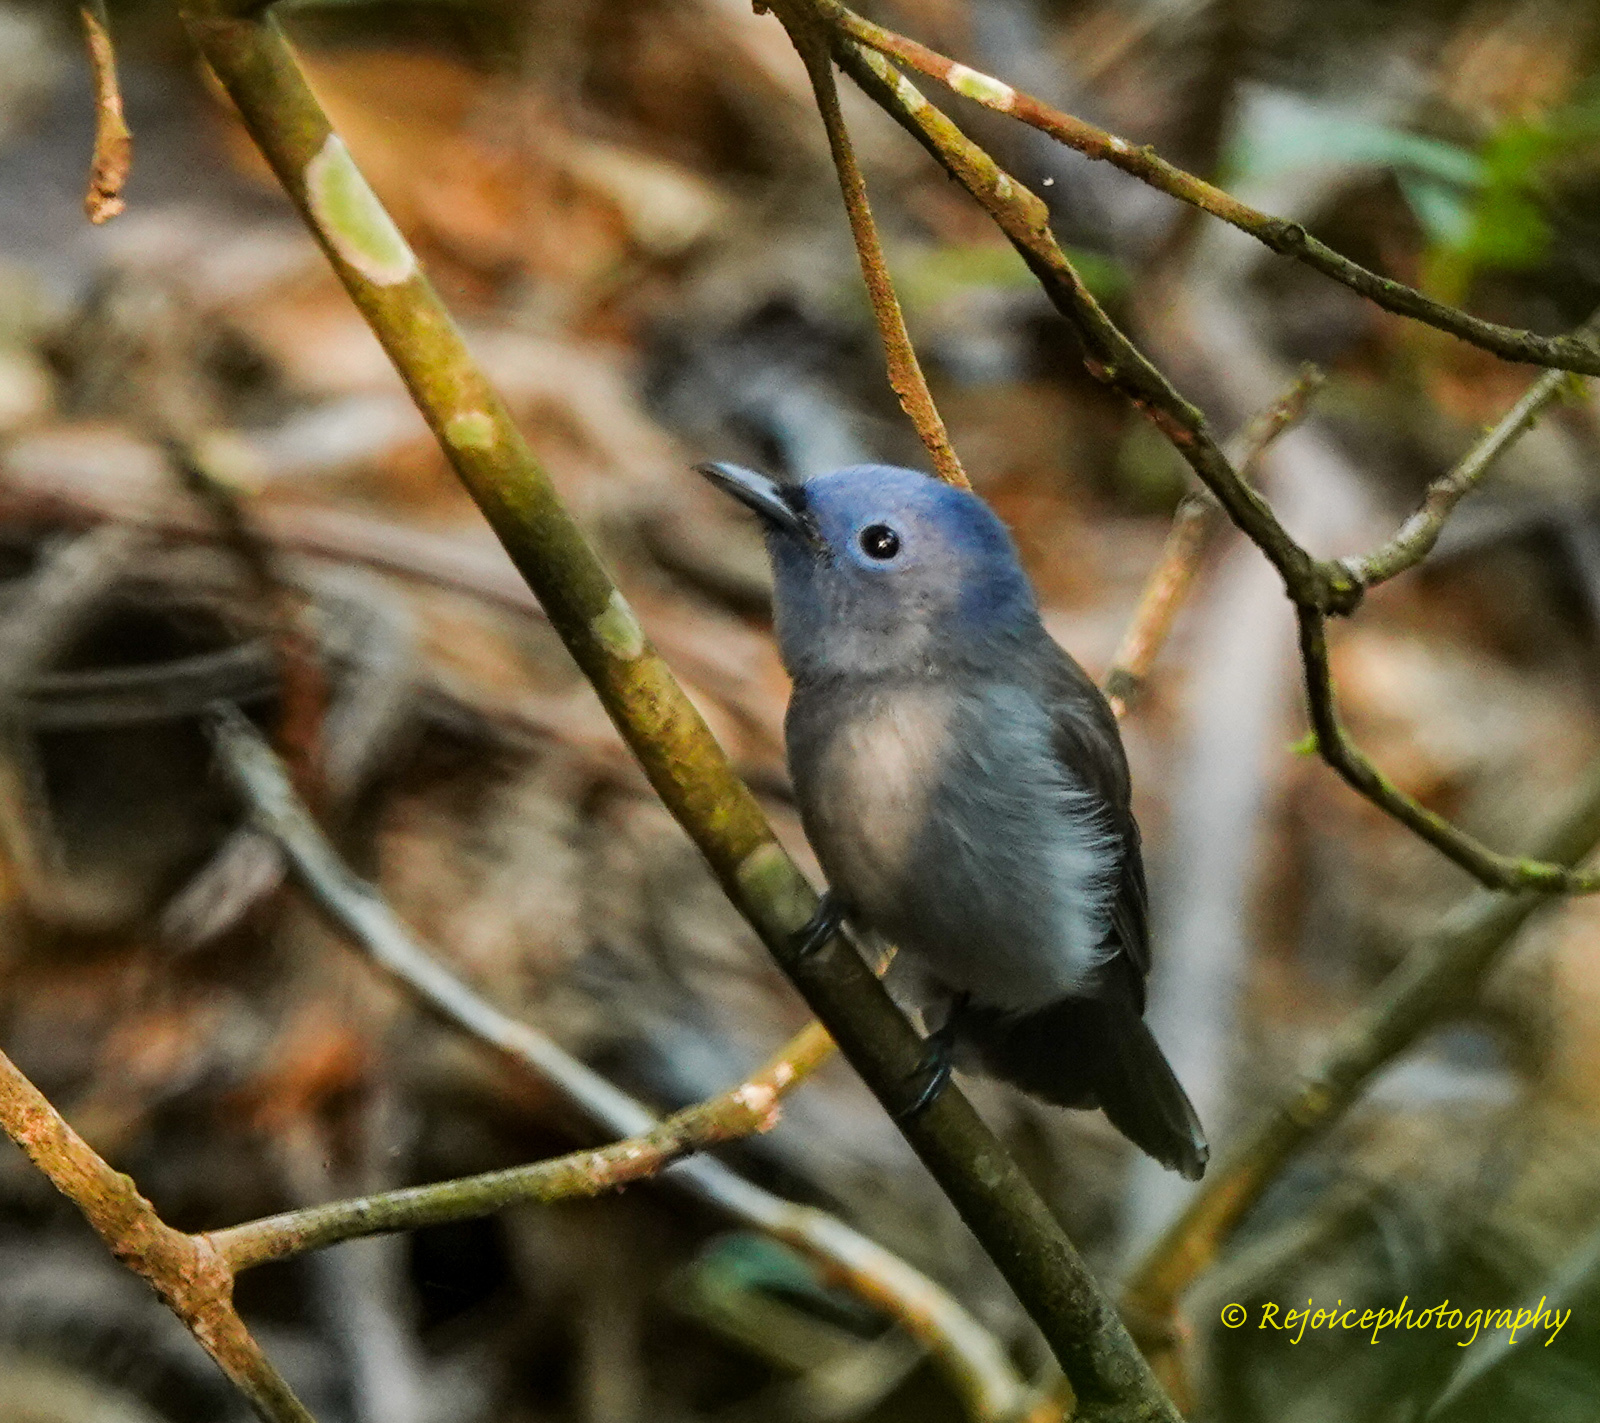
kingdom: Animalia
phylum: Chordata
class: Aves
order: Passeriformes
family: Monarchidae
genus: Hypothymis
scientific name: Hypothymis azurea
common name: Black-naped monarch
